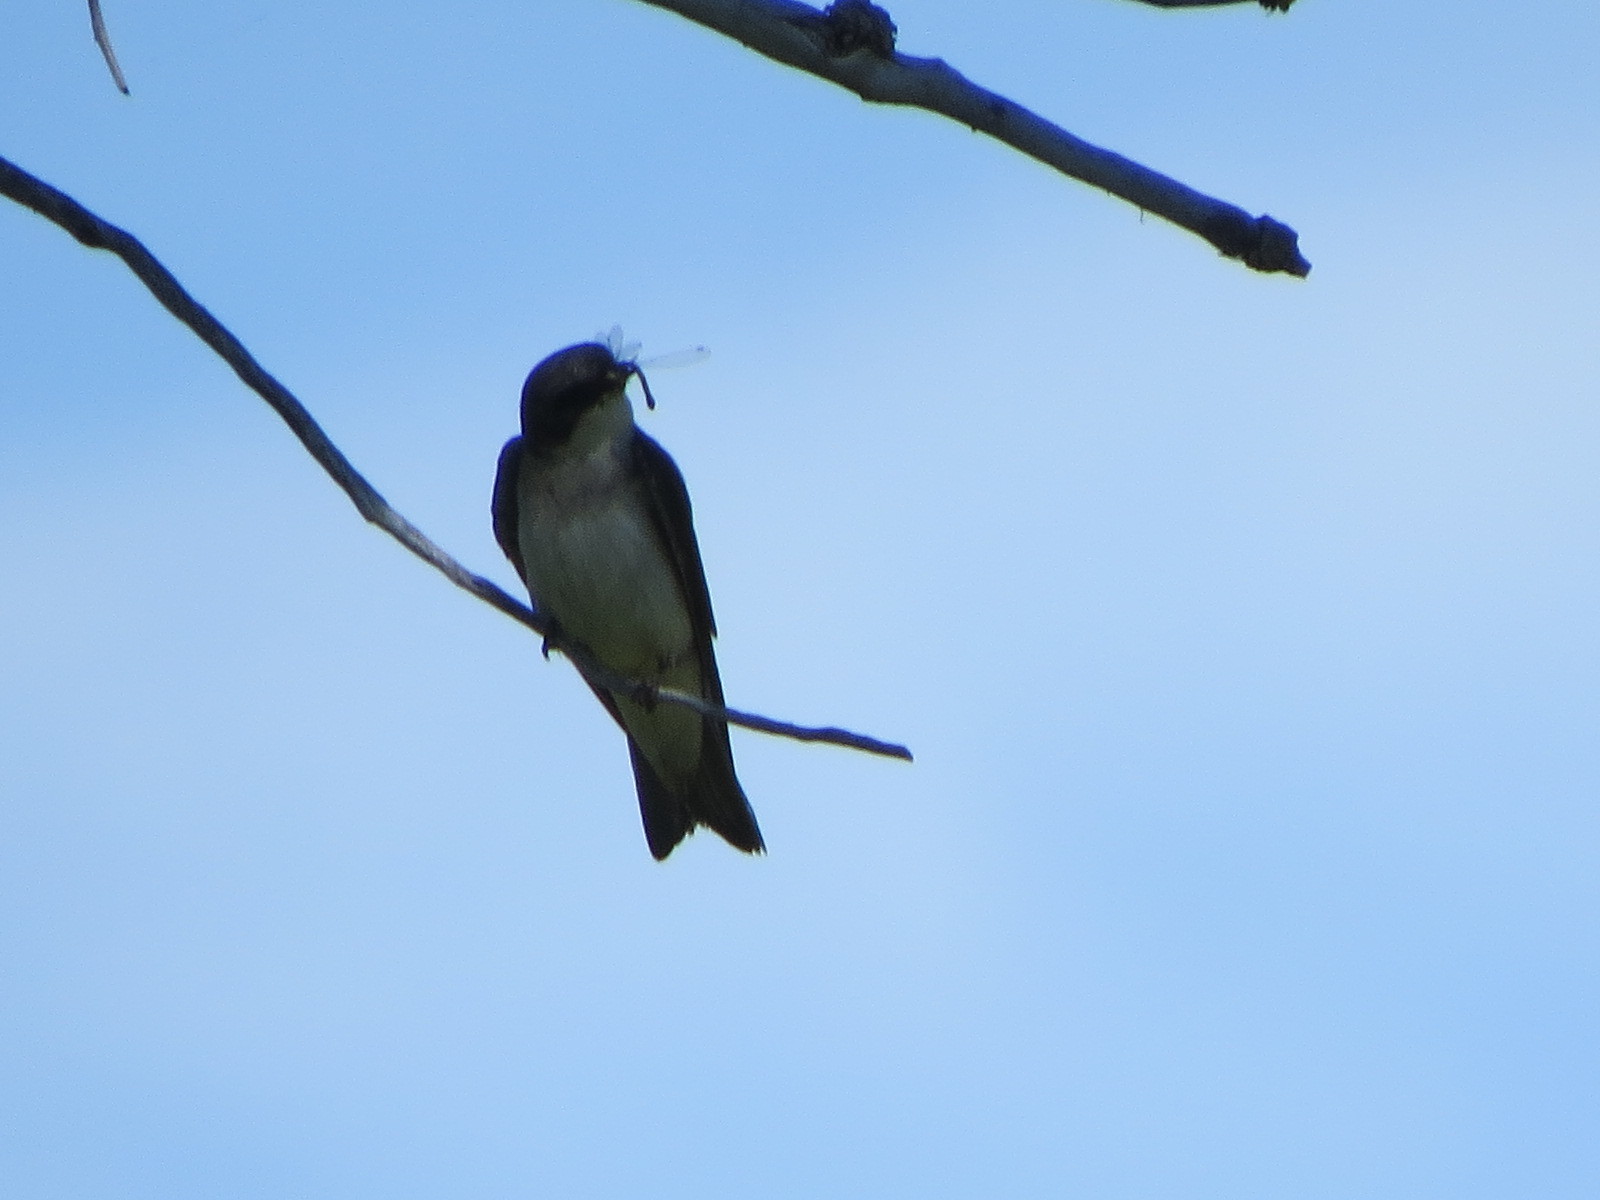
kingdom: Animalia
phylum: Chordata
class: Aves
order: Passeriformes
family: Hirundinidae
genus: Tachycineta
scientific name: Tachycineta bicolor
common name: Tree swallow
